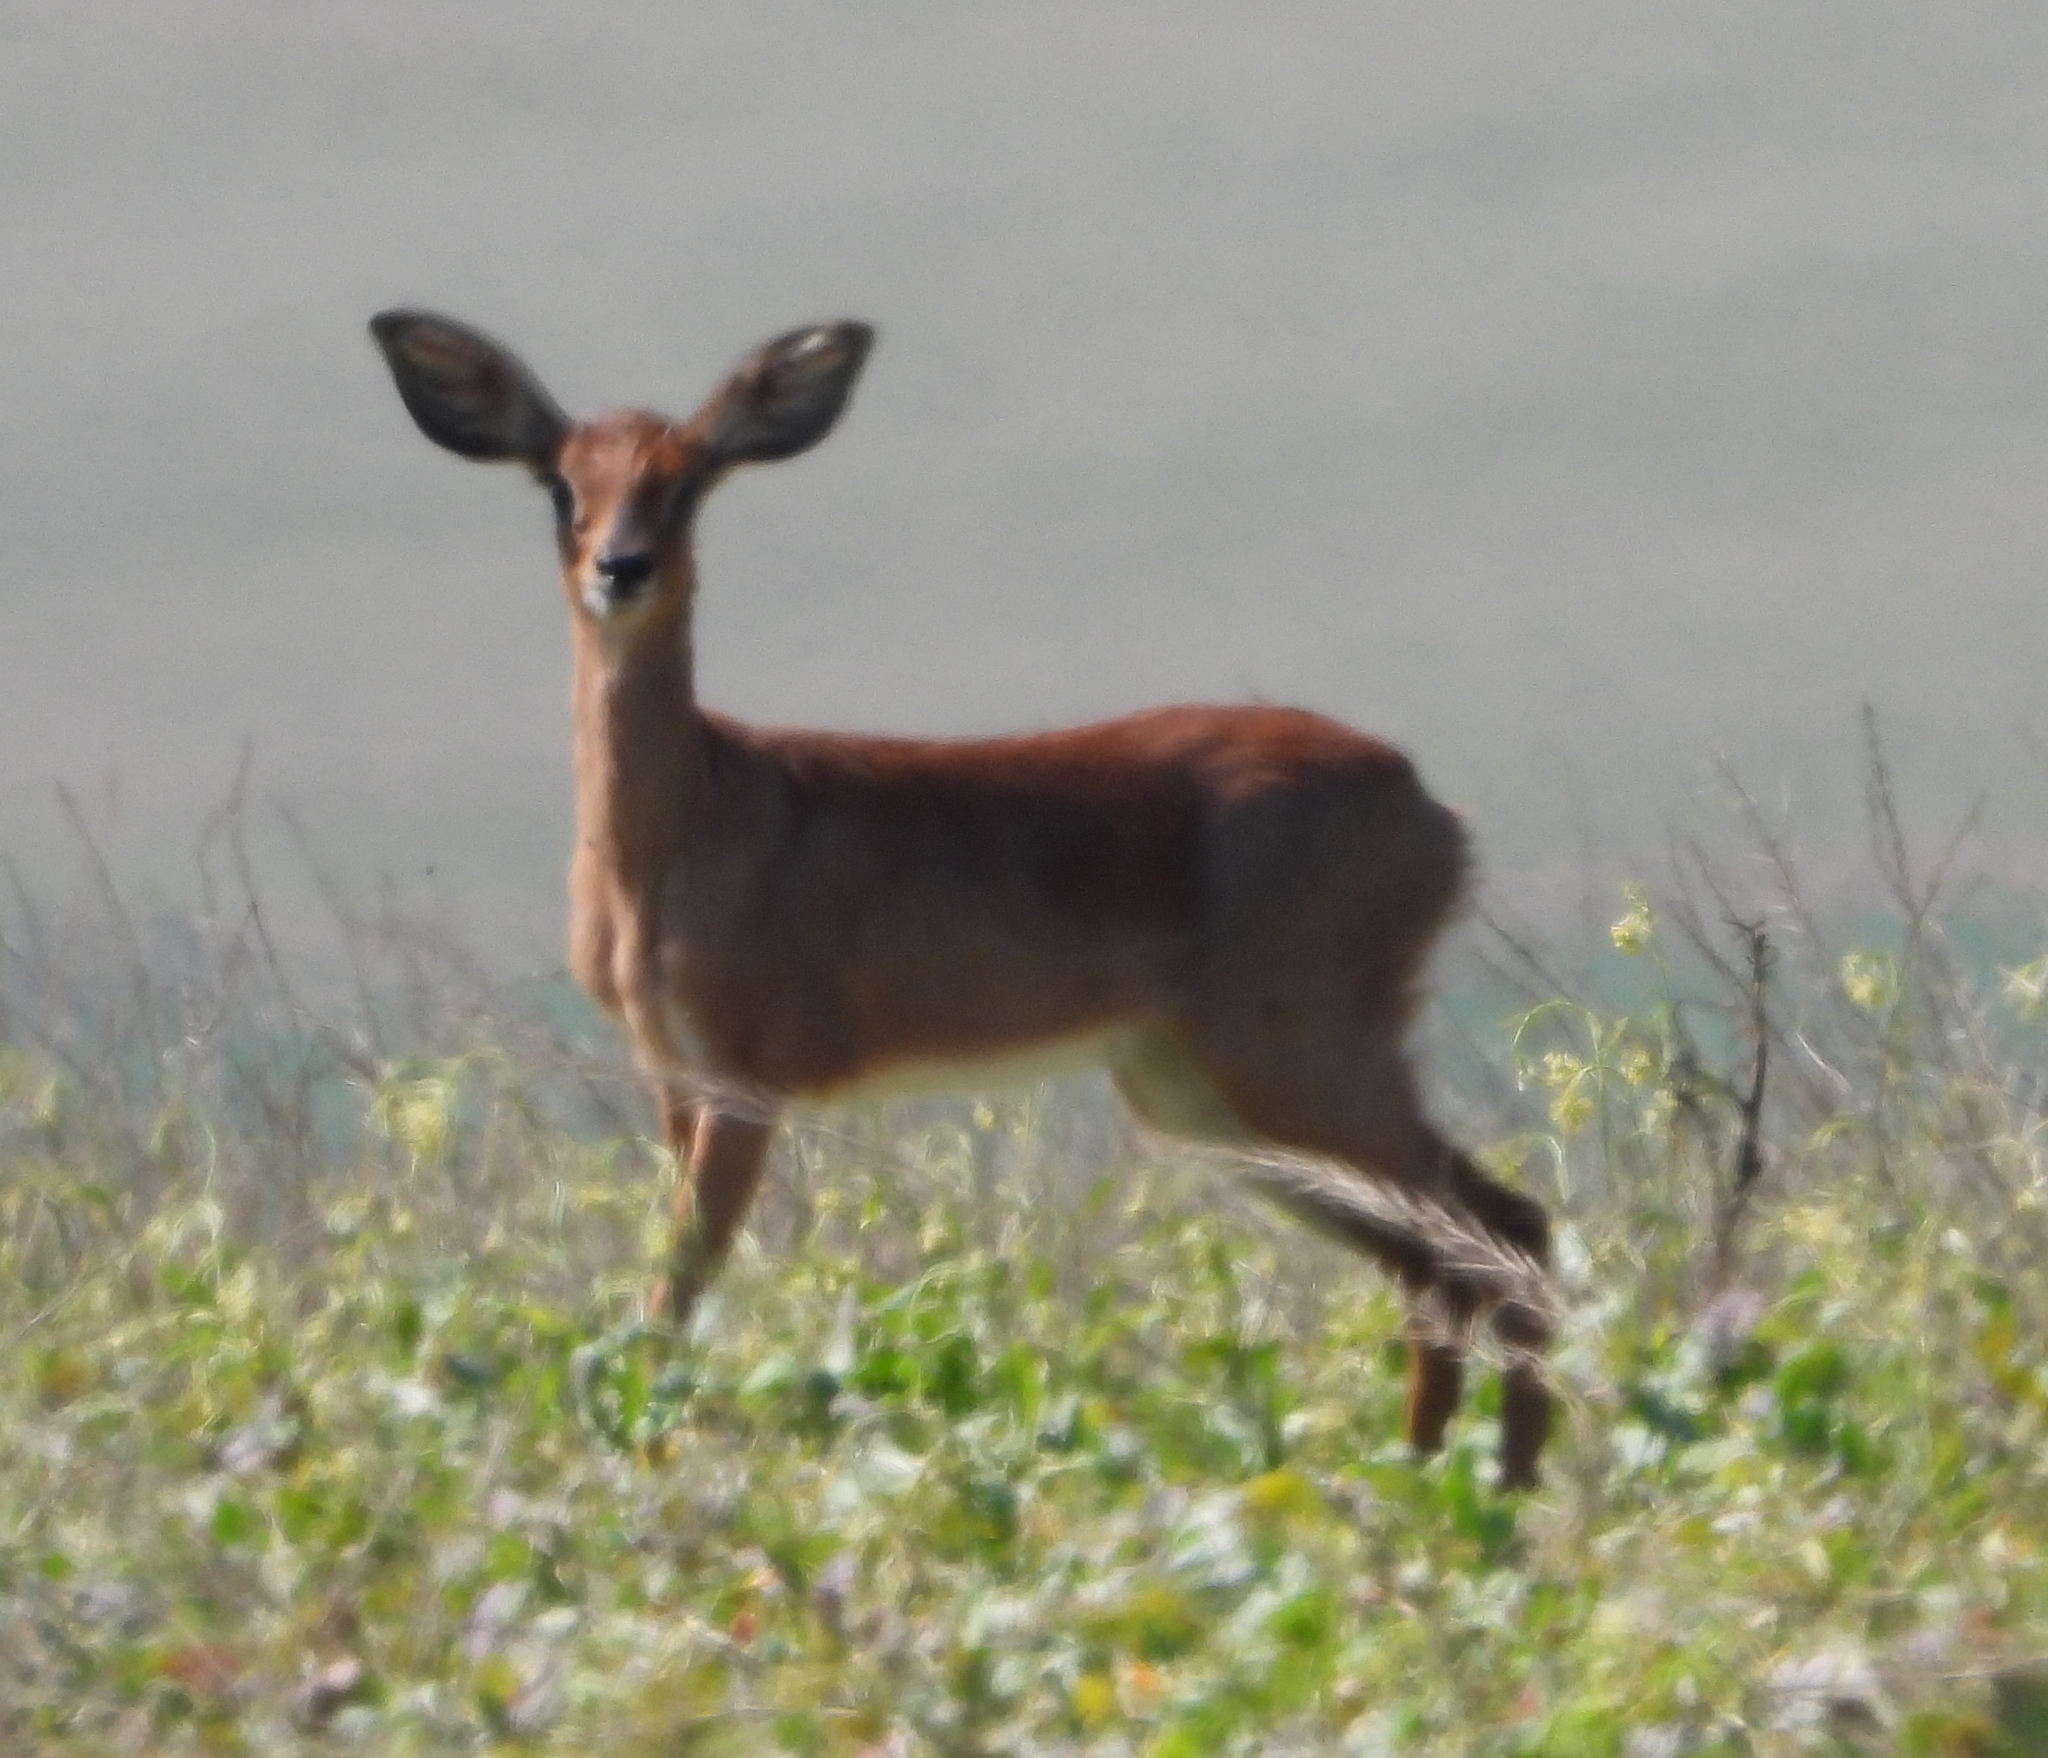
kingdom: Animalia
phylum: Chordata
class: Mammalia
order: Artiodactyla
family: Bovidae
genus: Raphicerus
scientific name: Raphicerus campestris
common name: Steenbok
